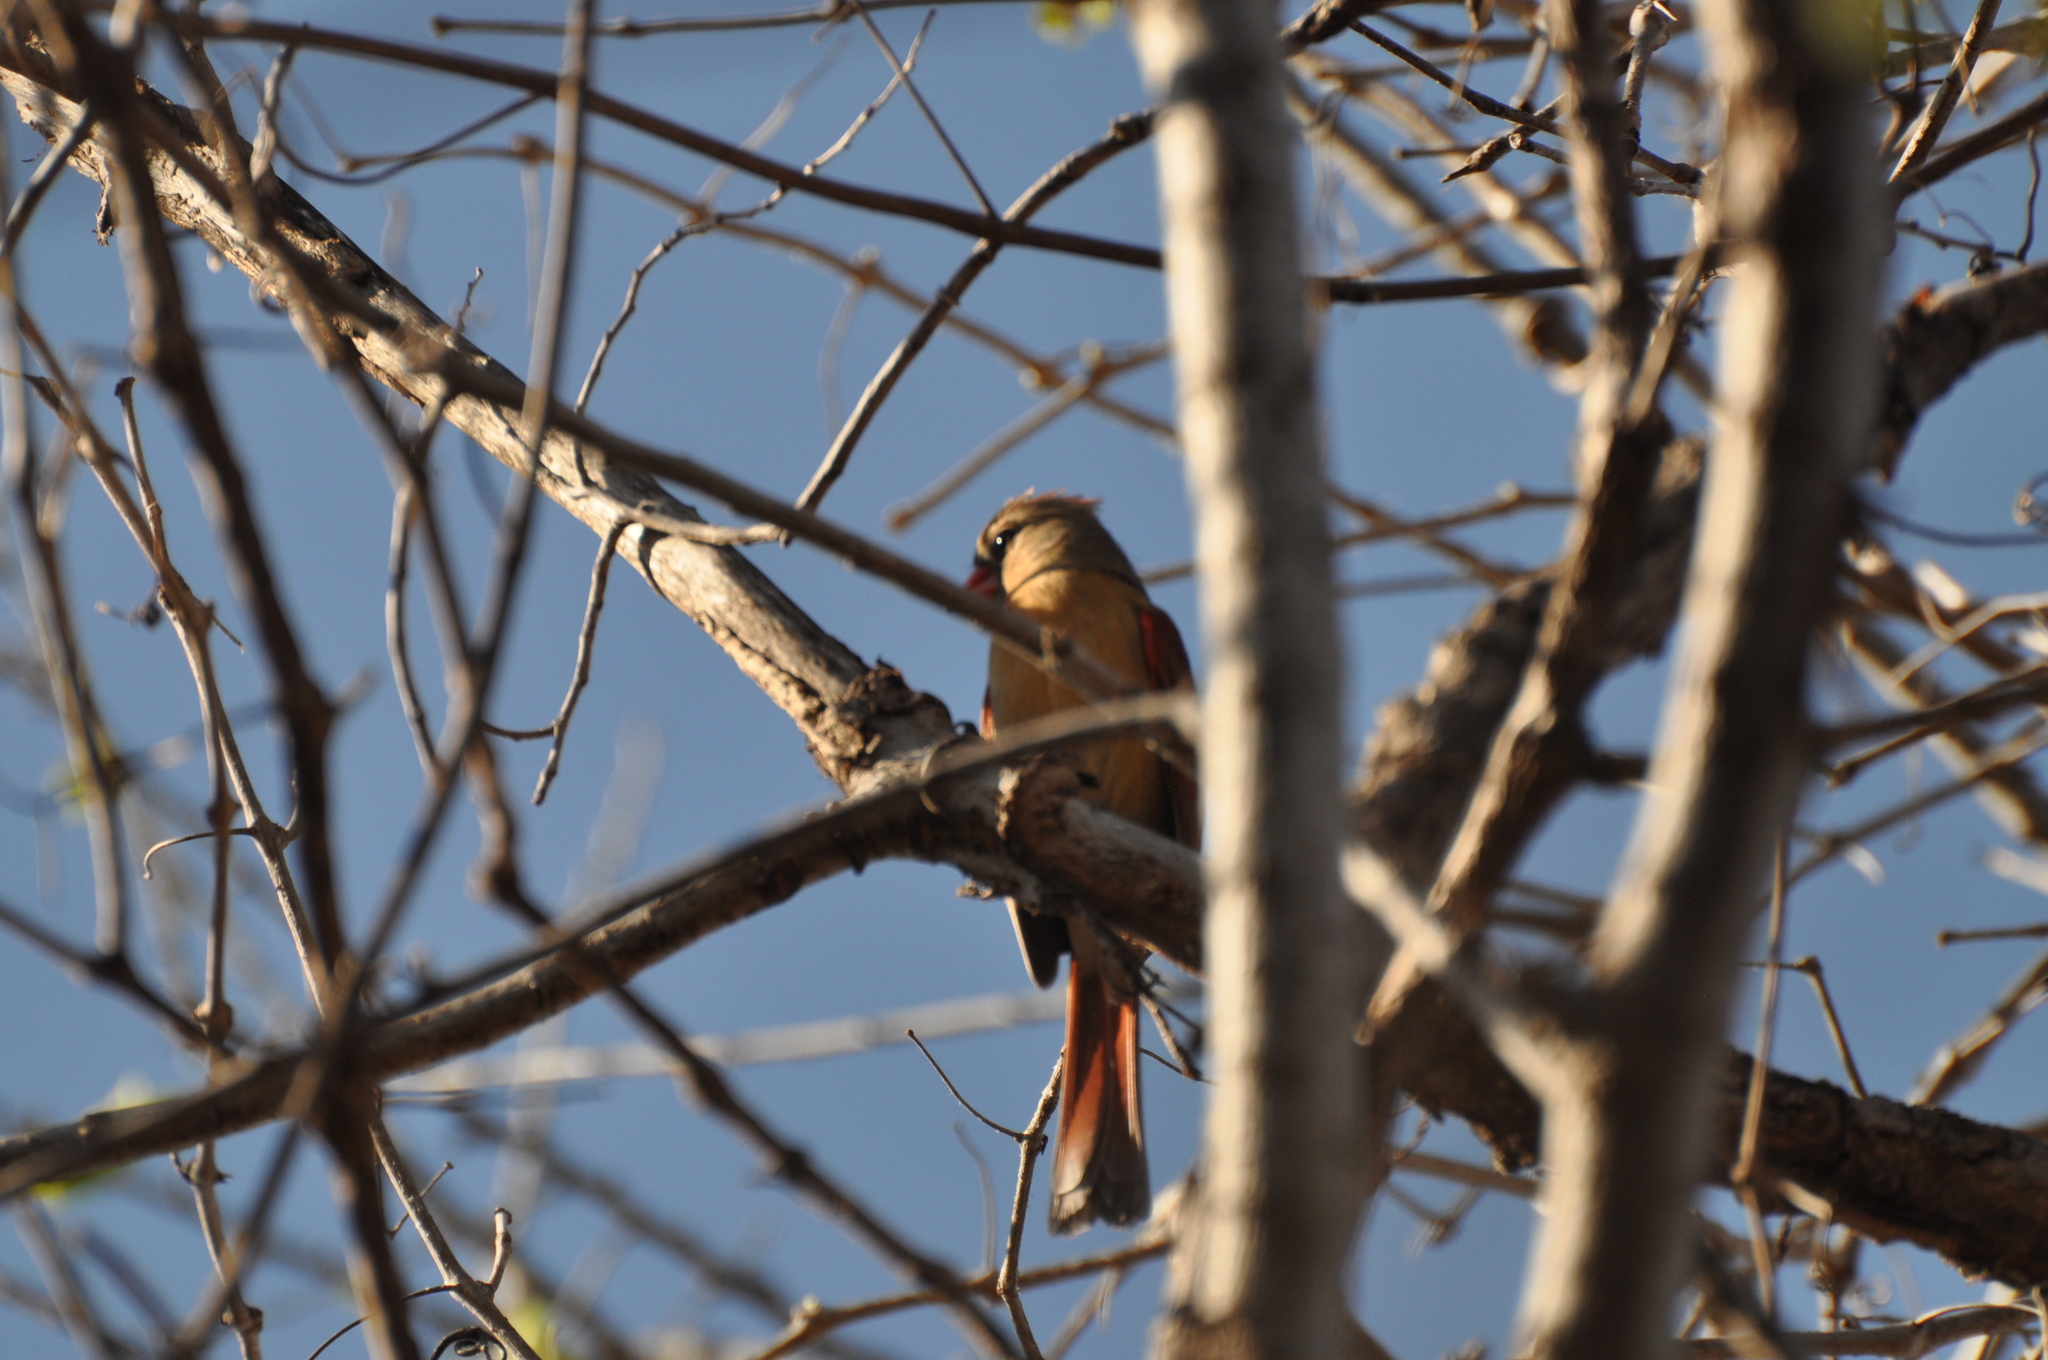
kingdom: Animalia
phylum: Chordata
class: Aves
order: Passeriformes
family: Cardinalidae
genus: Cardinalis
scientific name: Cardinalis cardinalis
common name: Northern cardinal
